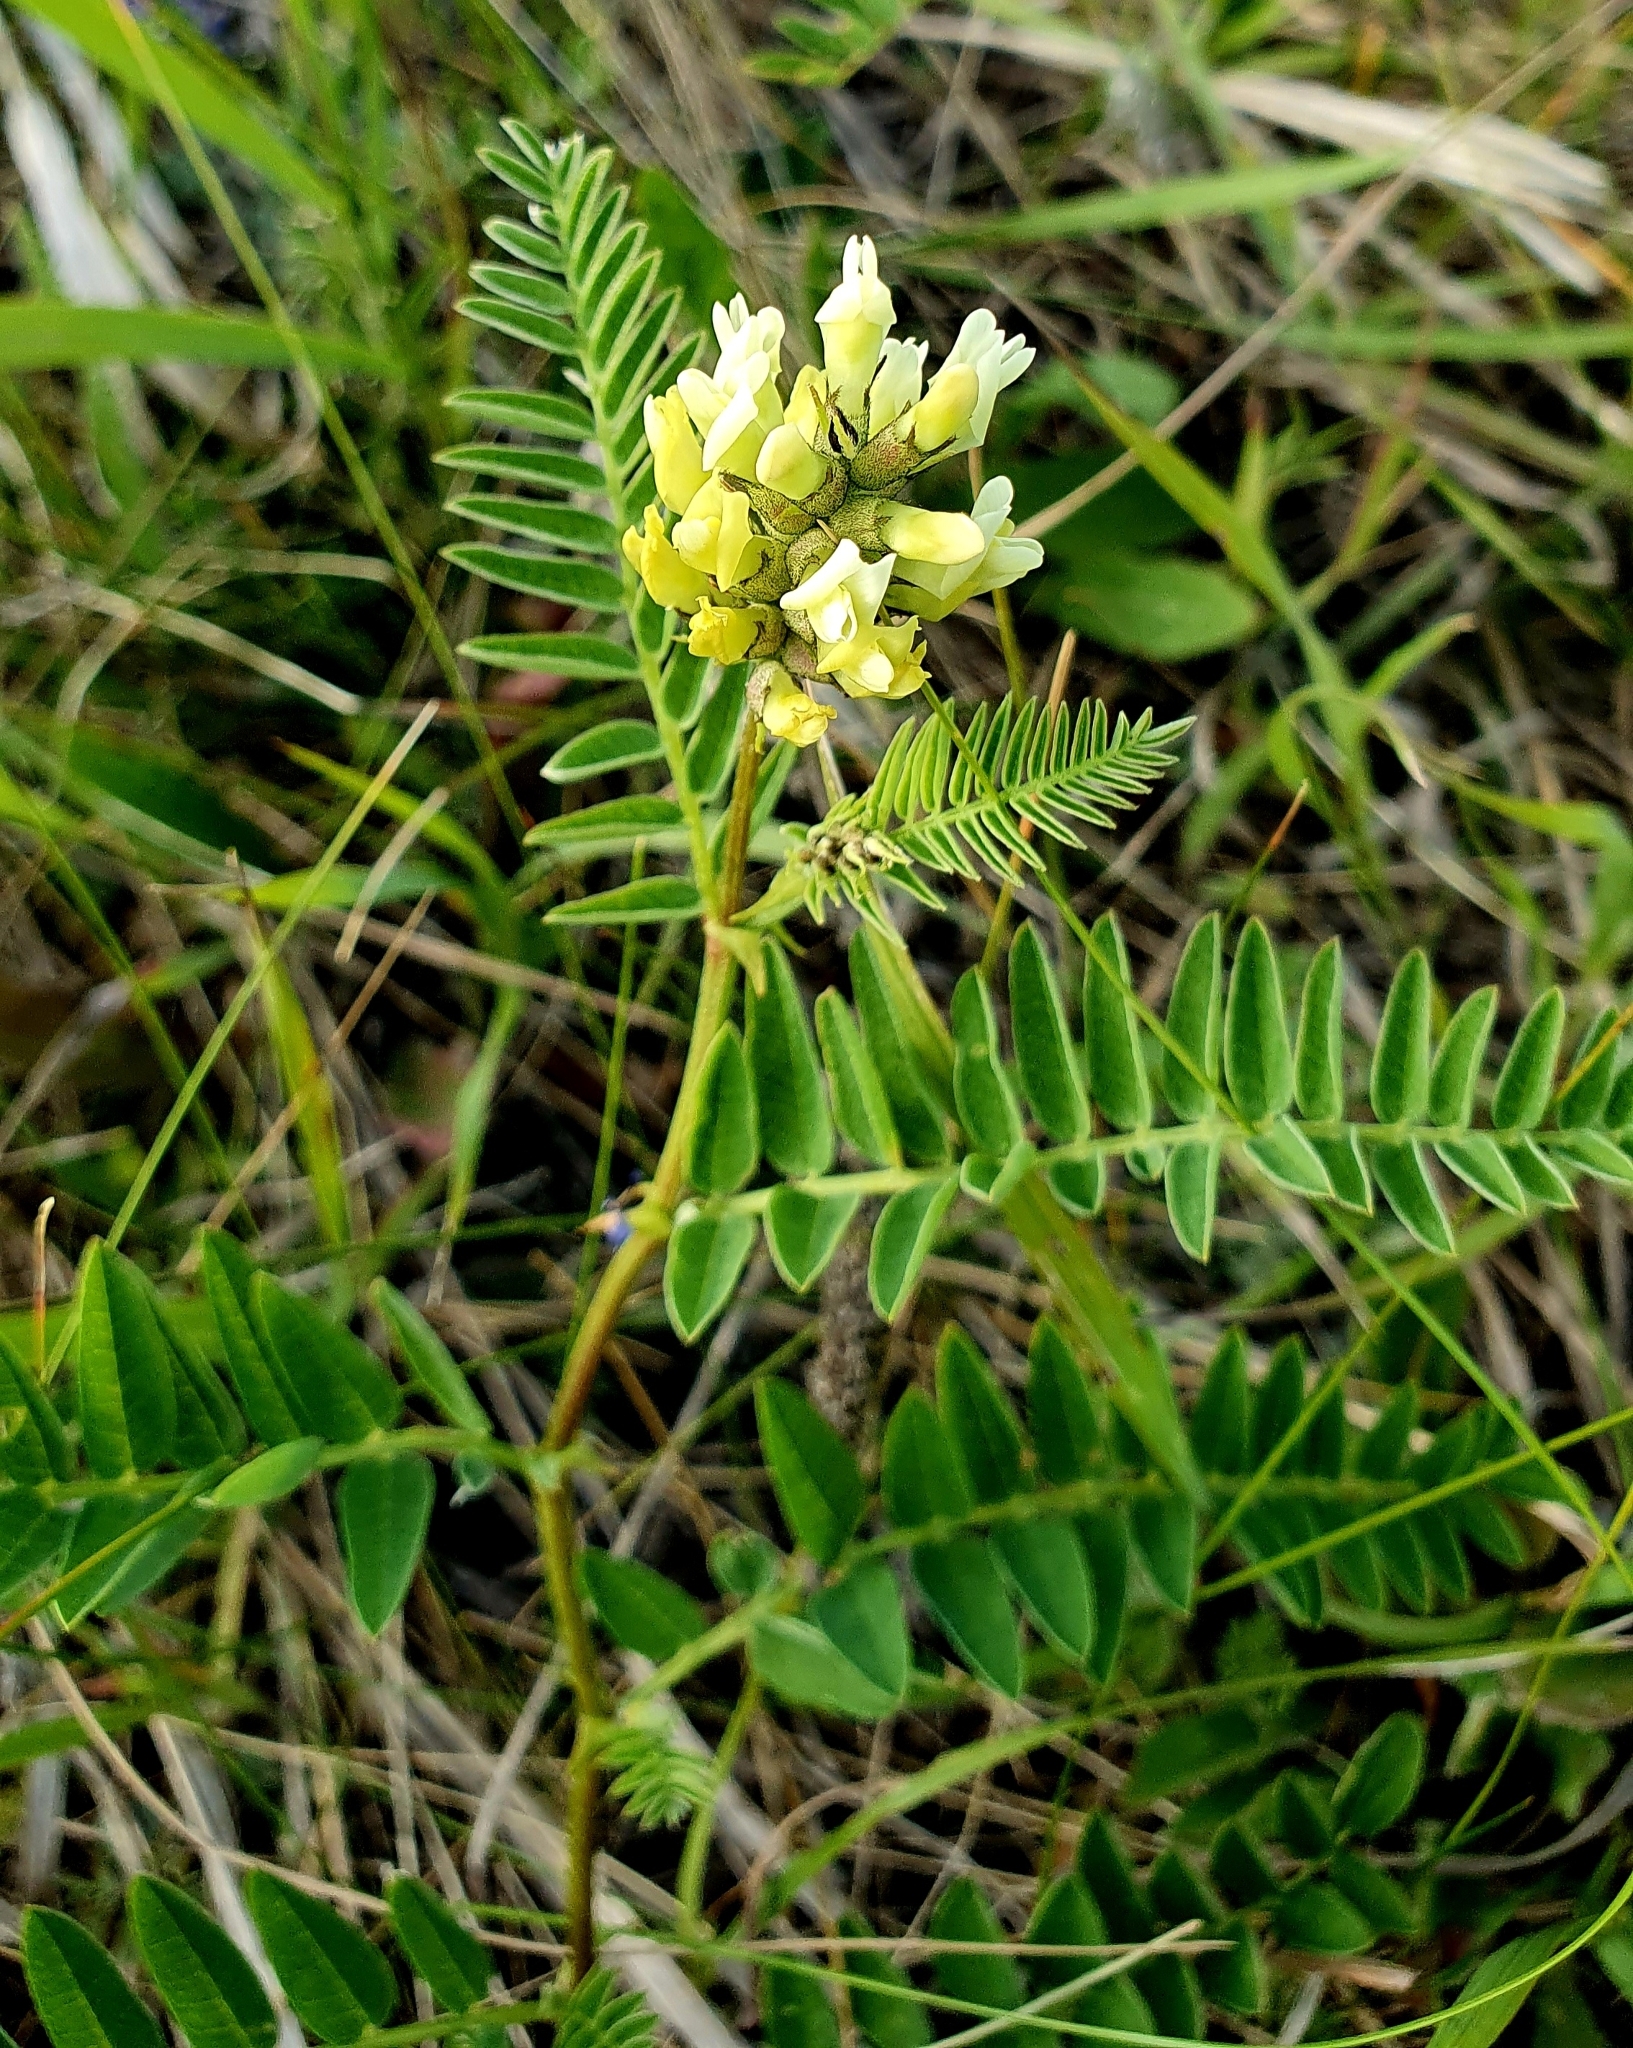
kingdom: Plantae
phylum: Tracheophyta
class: Magnoliopsida
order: Fabales
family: Fabaceae
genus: Astragalus
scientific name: Astragalus cicer
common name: Chick-pea milk-vetch
